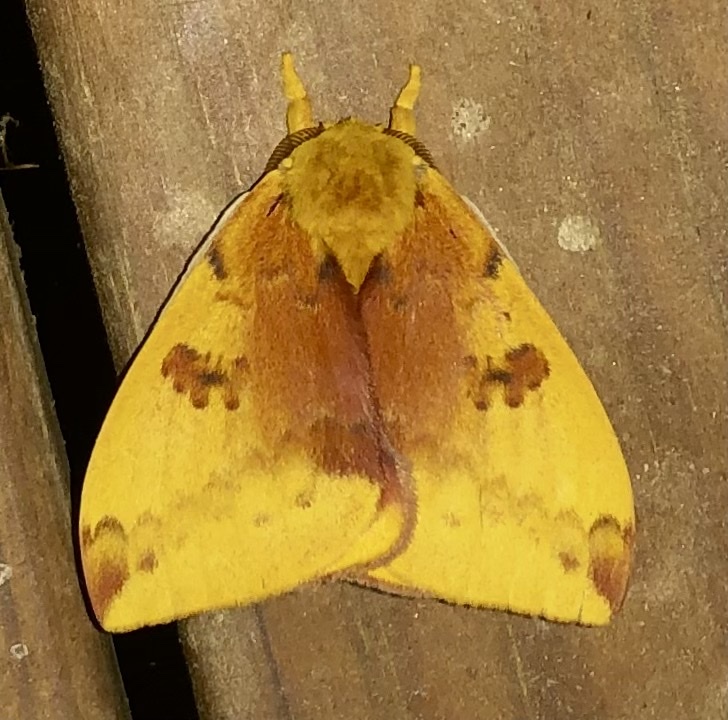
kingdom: Animalia
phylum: Arthropoda
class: Insecta
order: Lepidoptera
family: Saturniidae
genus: Automeris
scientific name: Automeris io
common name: Io moth
